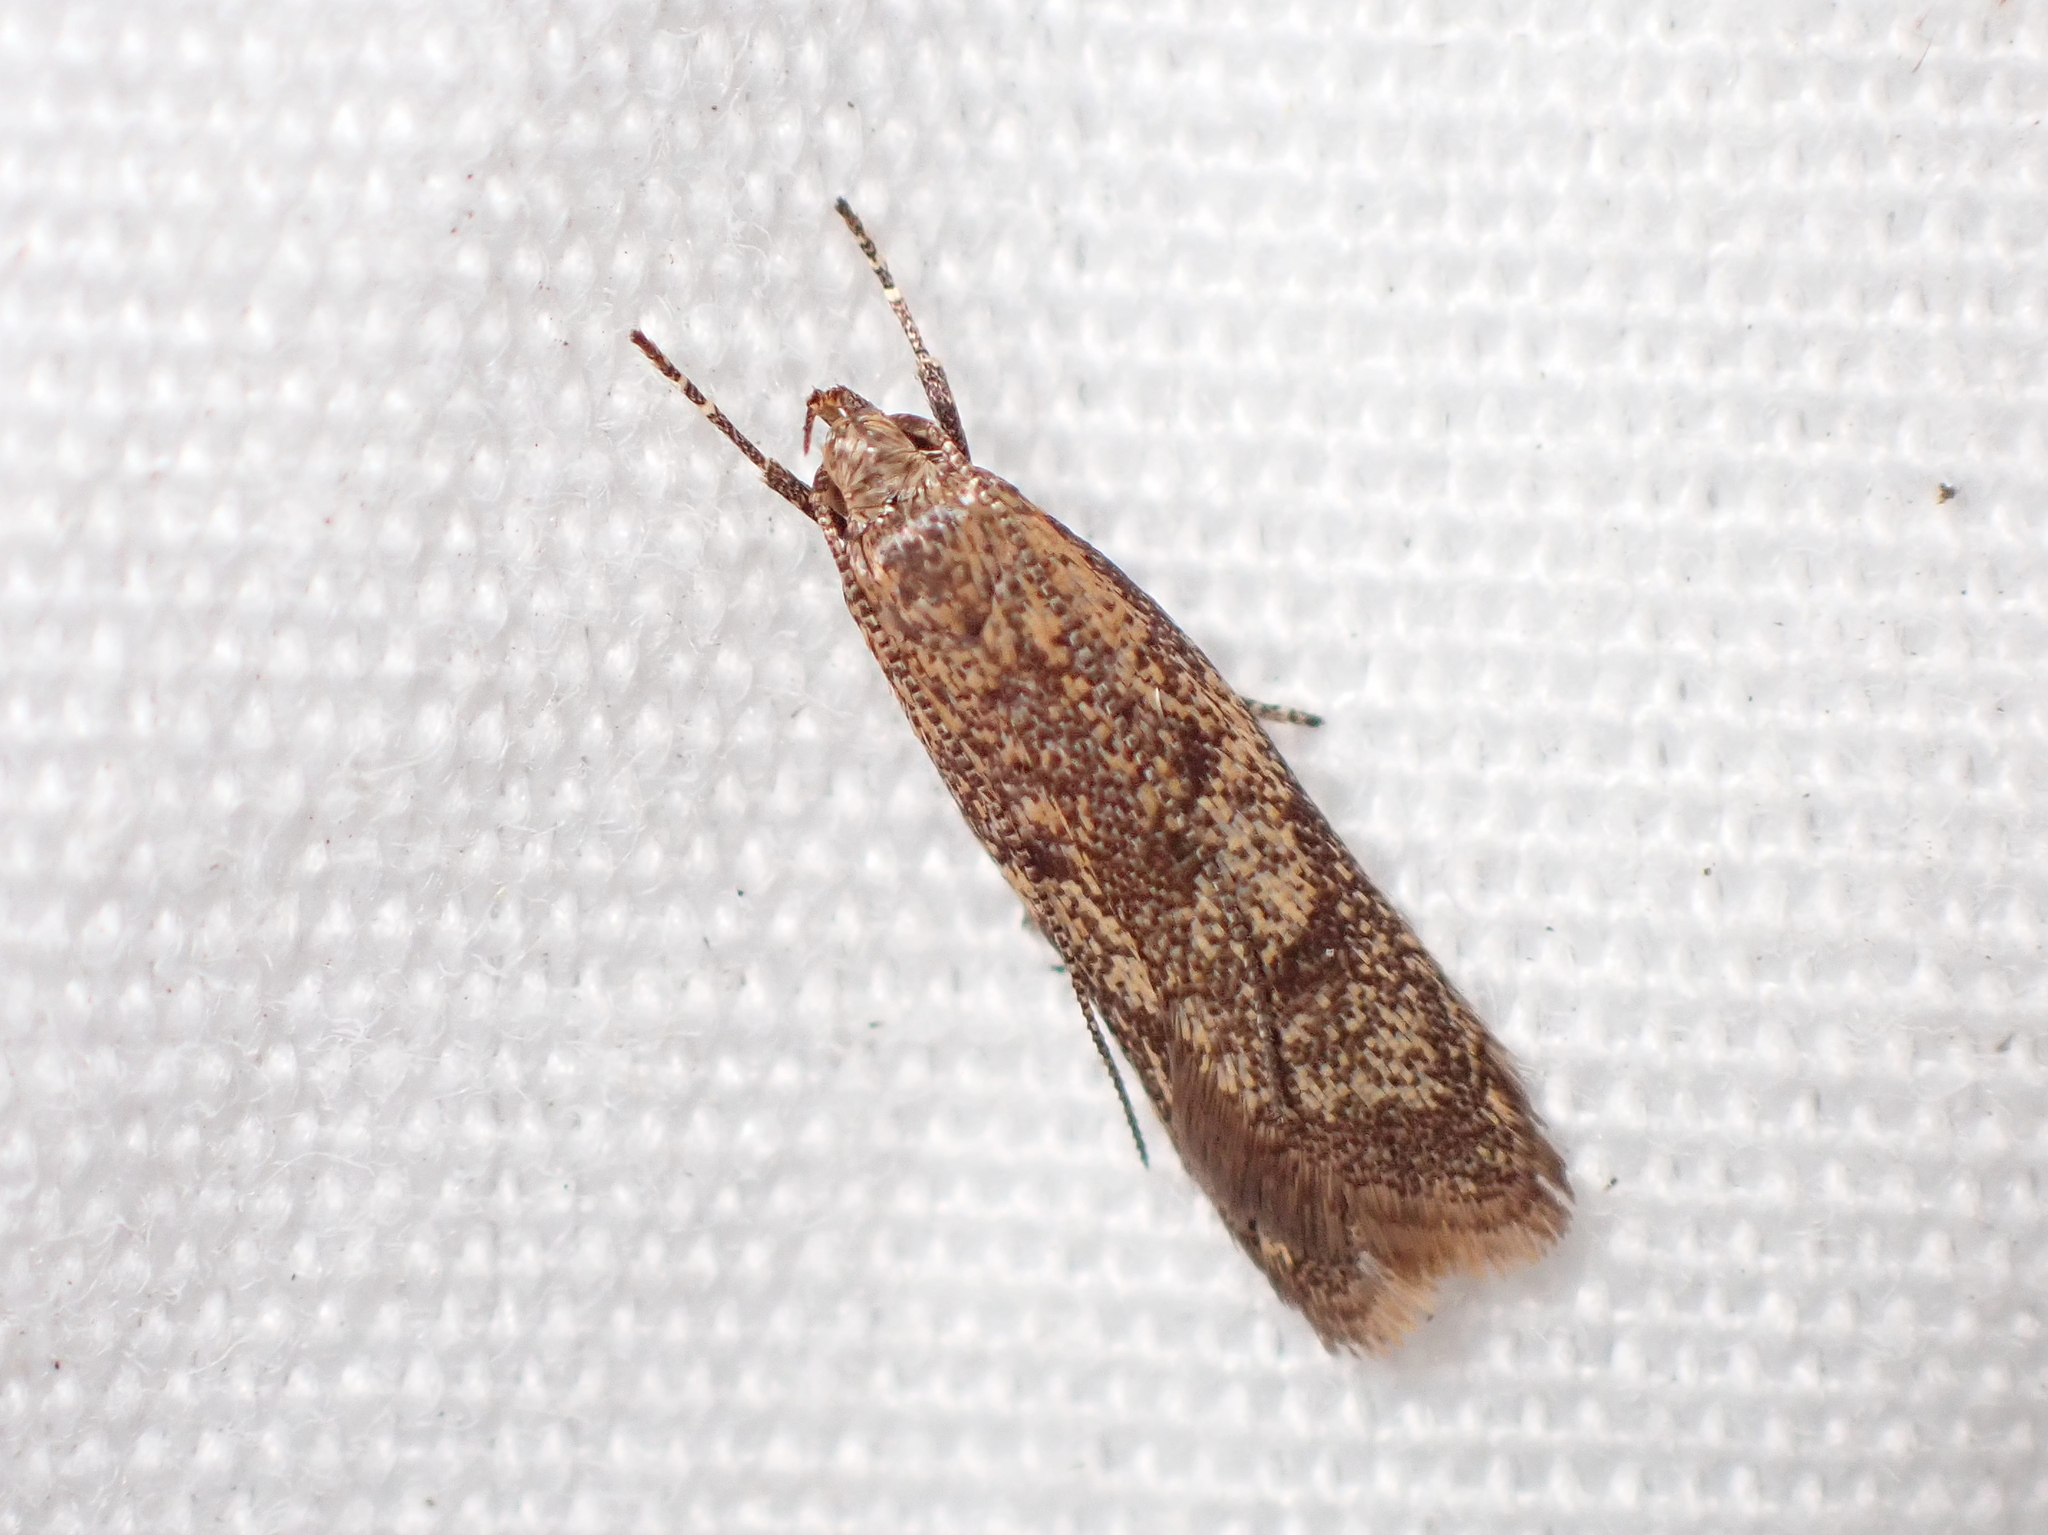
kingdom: Animalia
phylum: Arthropoda
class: Insecta
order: Lepidoptera
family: Oecophoridae
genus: Gymnobathra
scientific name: Gymnobathra tholodella
